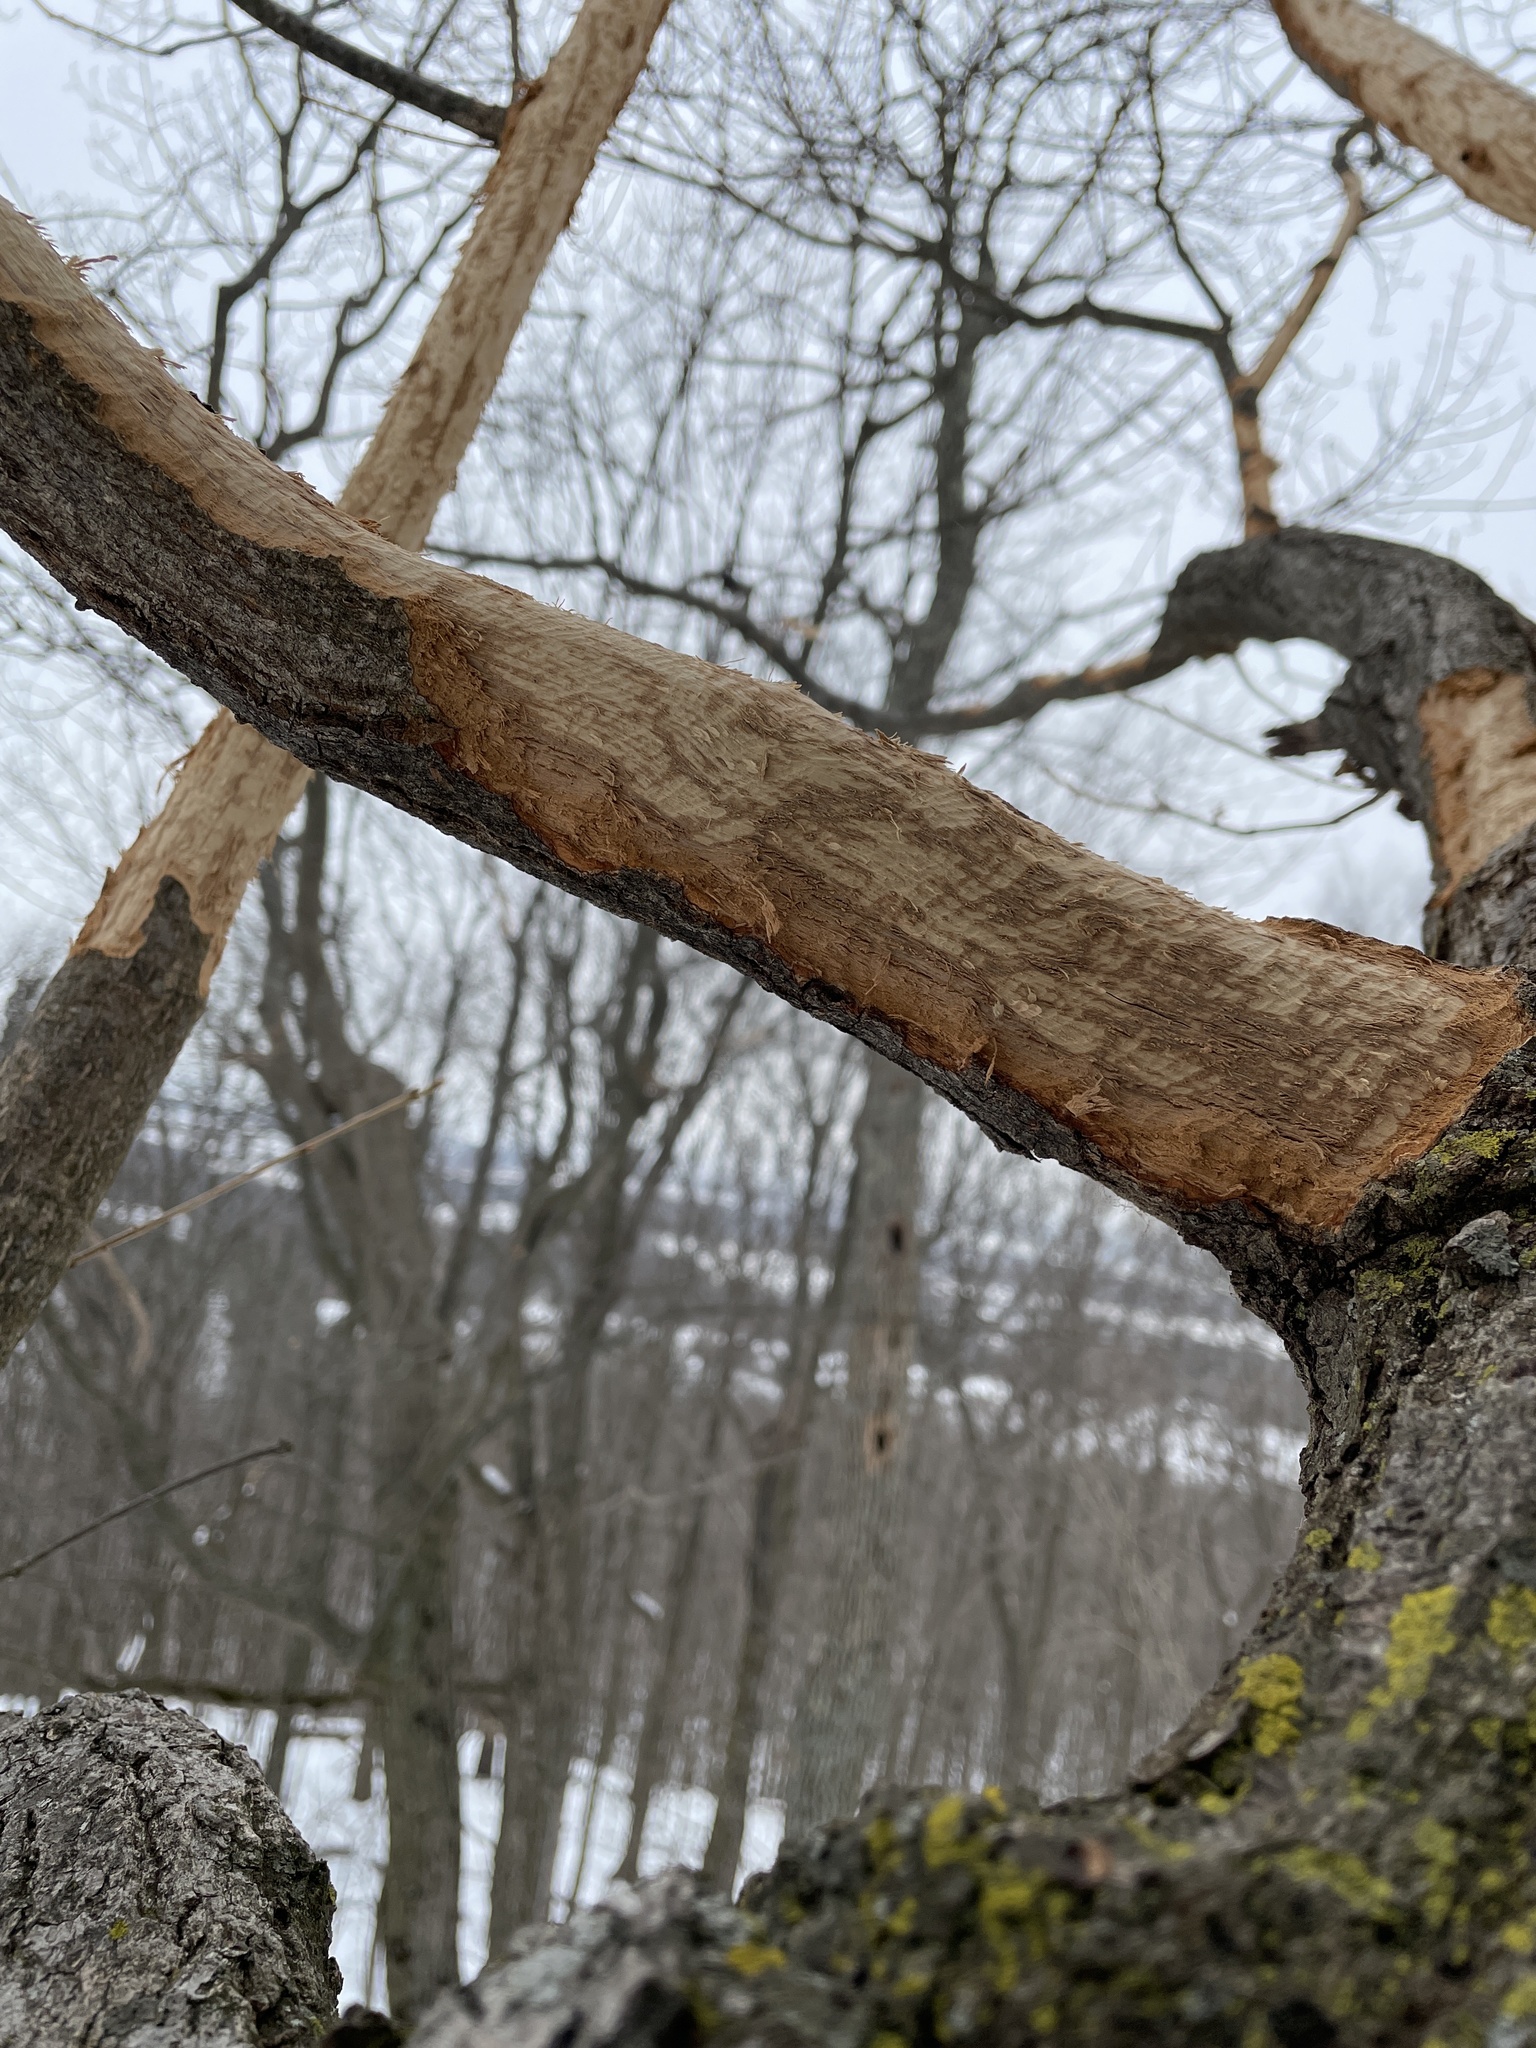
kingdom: Animalia
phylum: Chordata
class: Mammalia
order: Rodentia
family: Erethizontidae
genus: Erethizon
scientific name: Erethizon dorsatus
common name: North american porcupine
